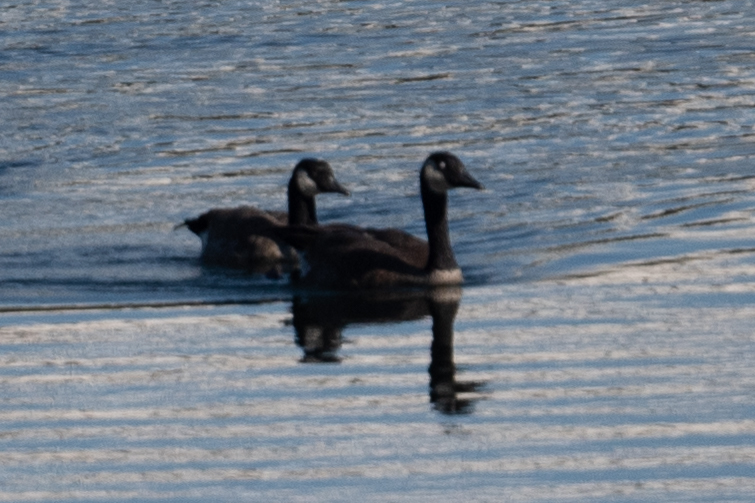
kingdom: Animalia
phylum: Chordata
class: Aves
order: Anseriformes
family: Anatidae
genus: Branta
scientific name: Branta canadensis
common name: Canada goose
